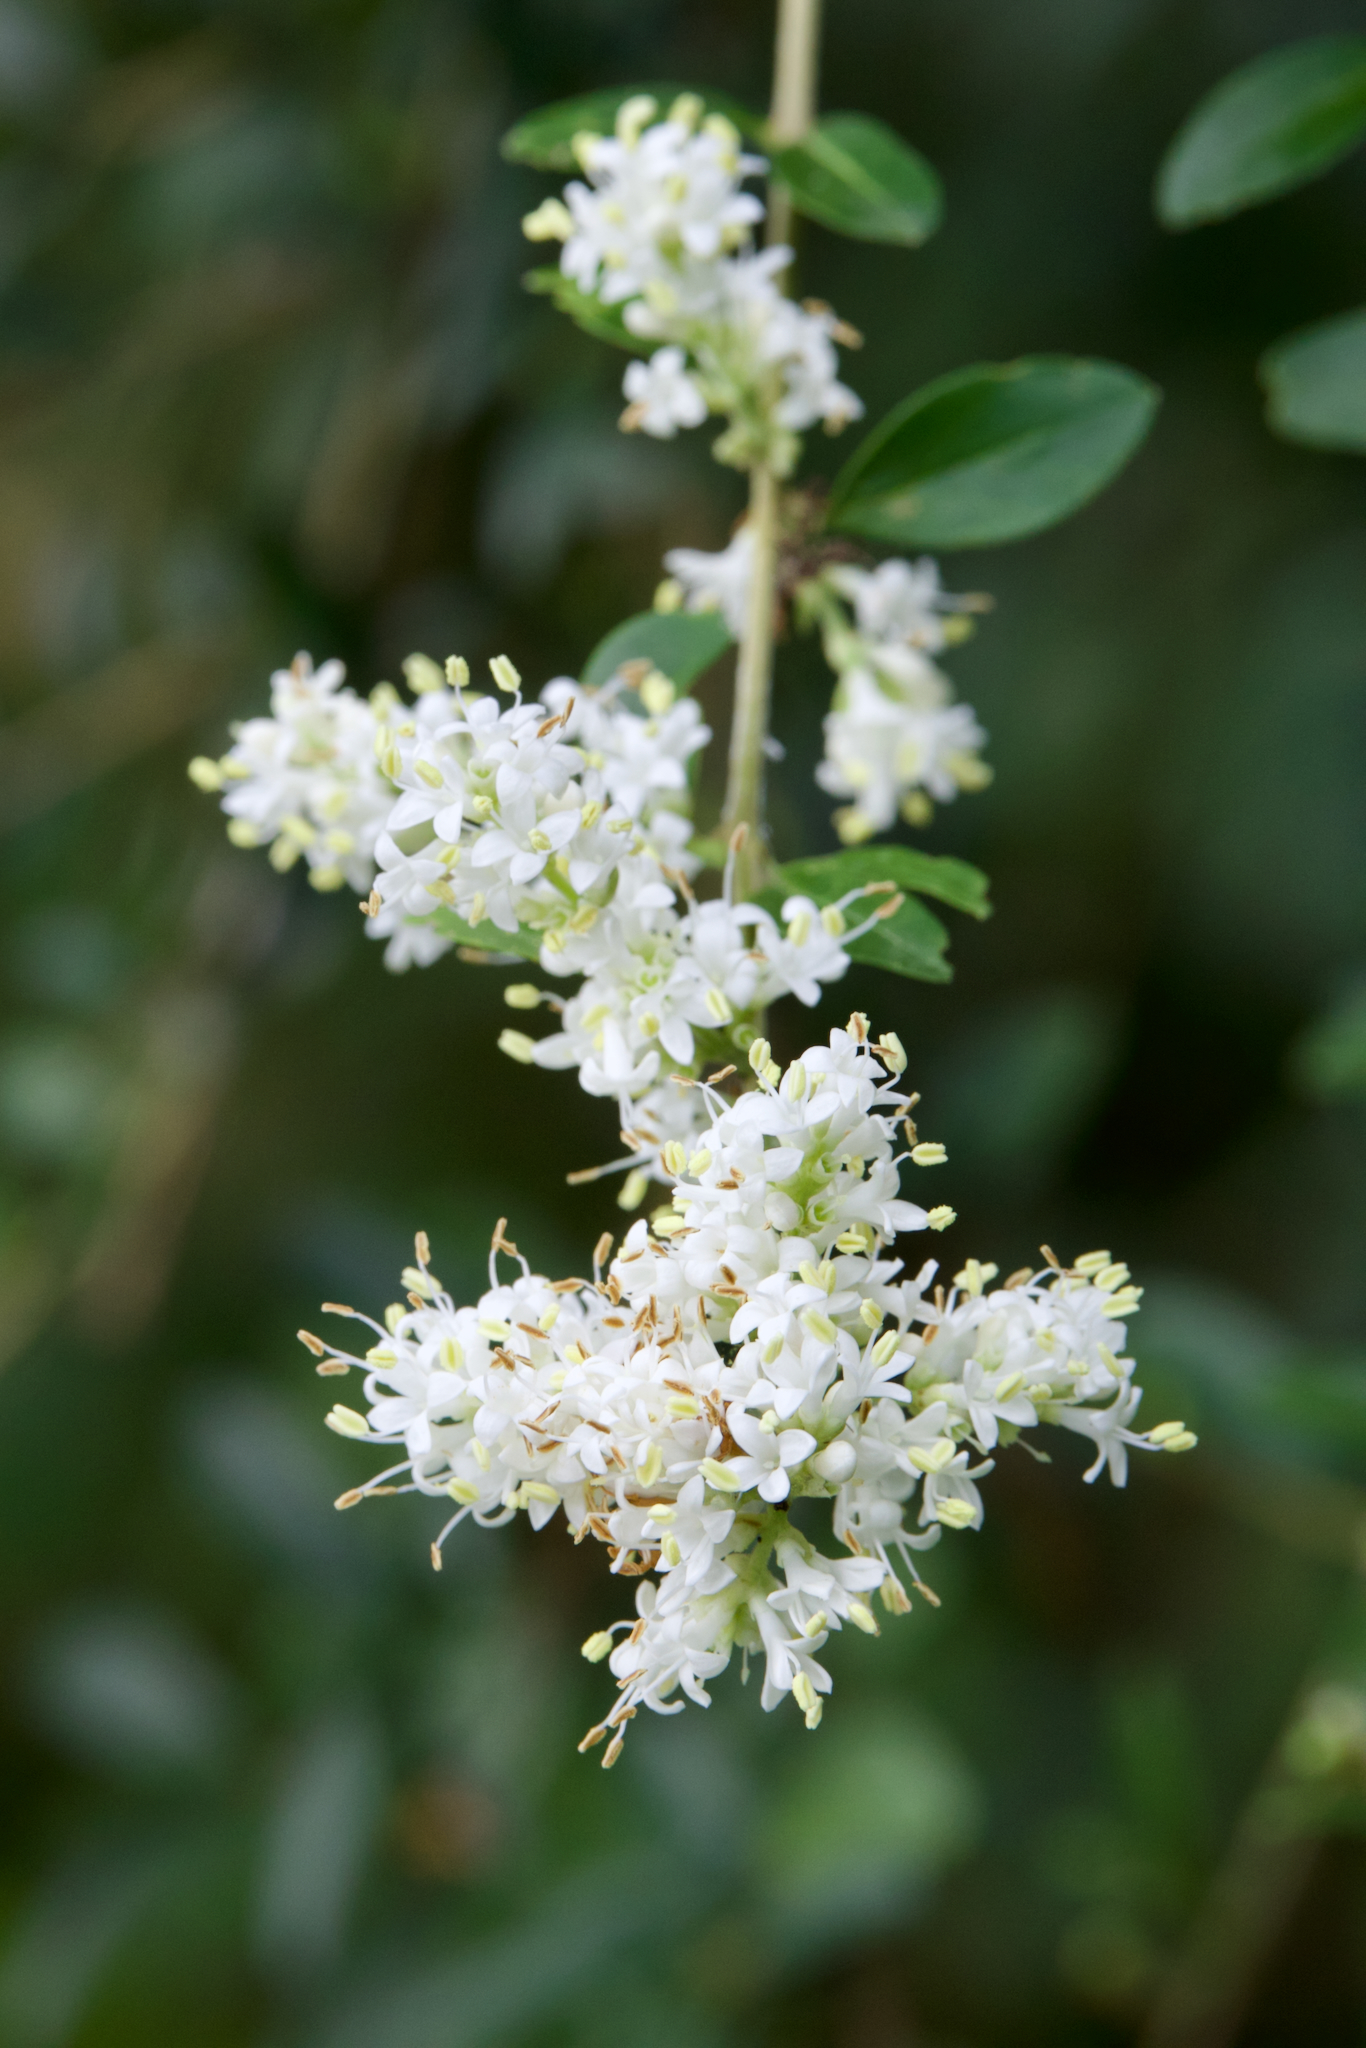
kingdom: Plantae
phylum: Tracheophyta
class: Magnoliopsida
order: Lamiales
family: Oleaceae
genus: Ligustrum
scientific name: Ligustrum quihoui
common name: Waxyleaf privet
